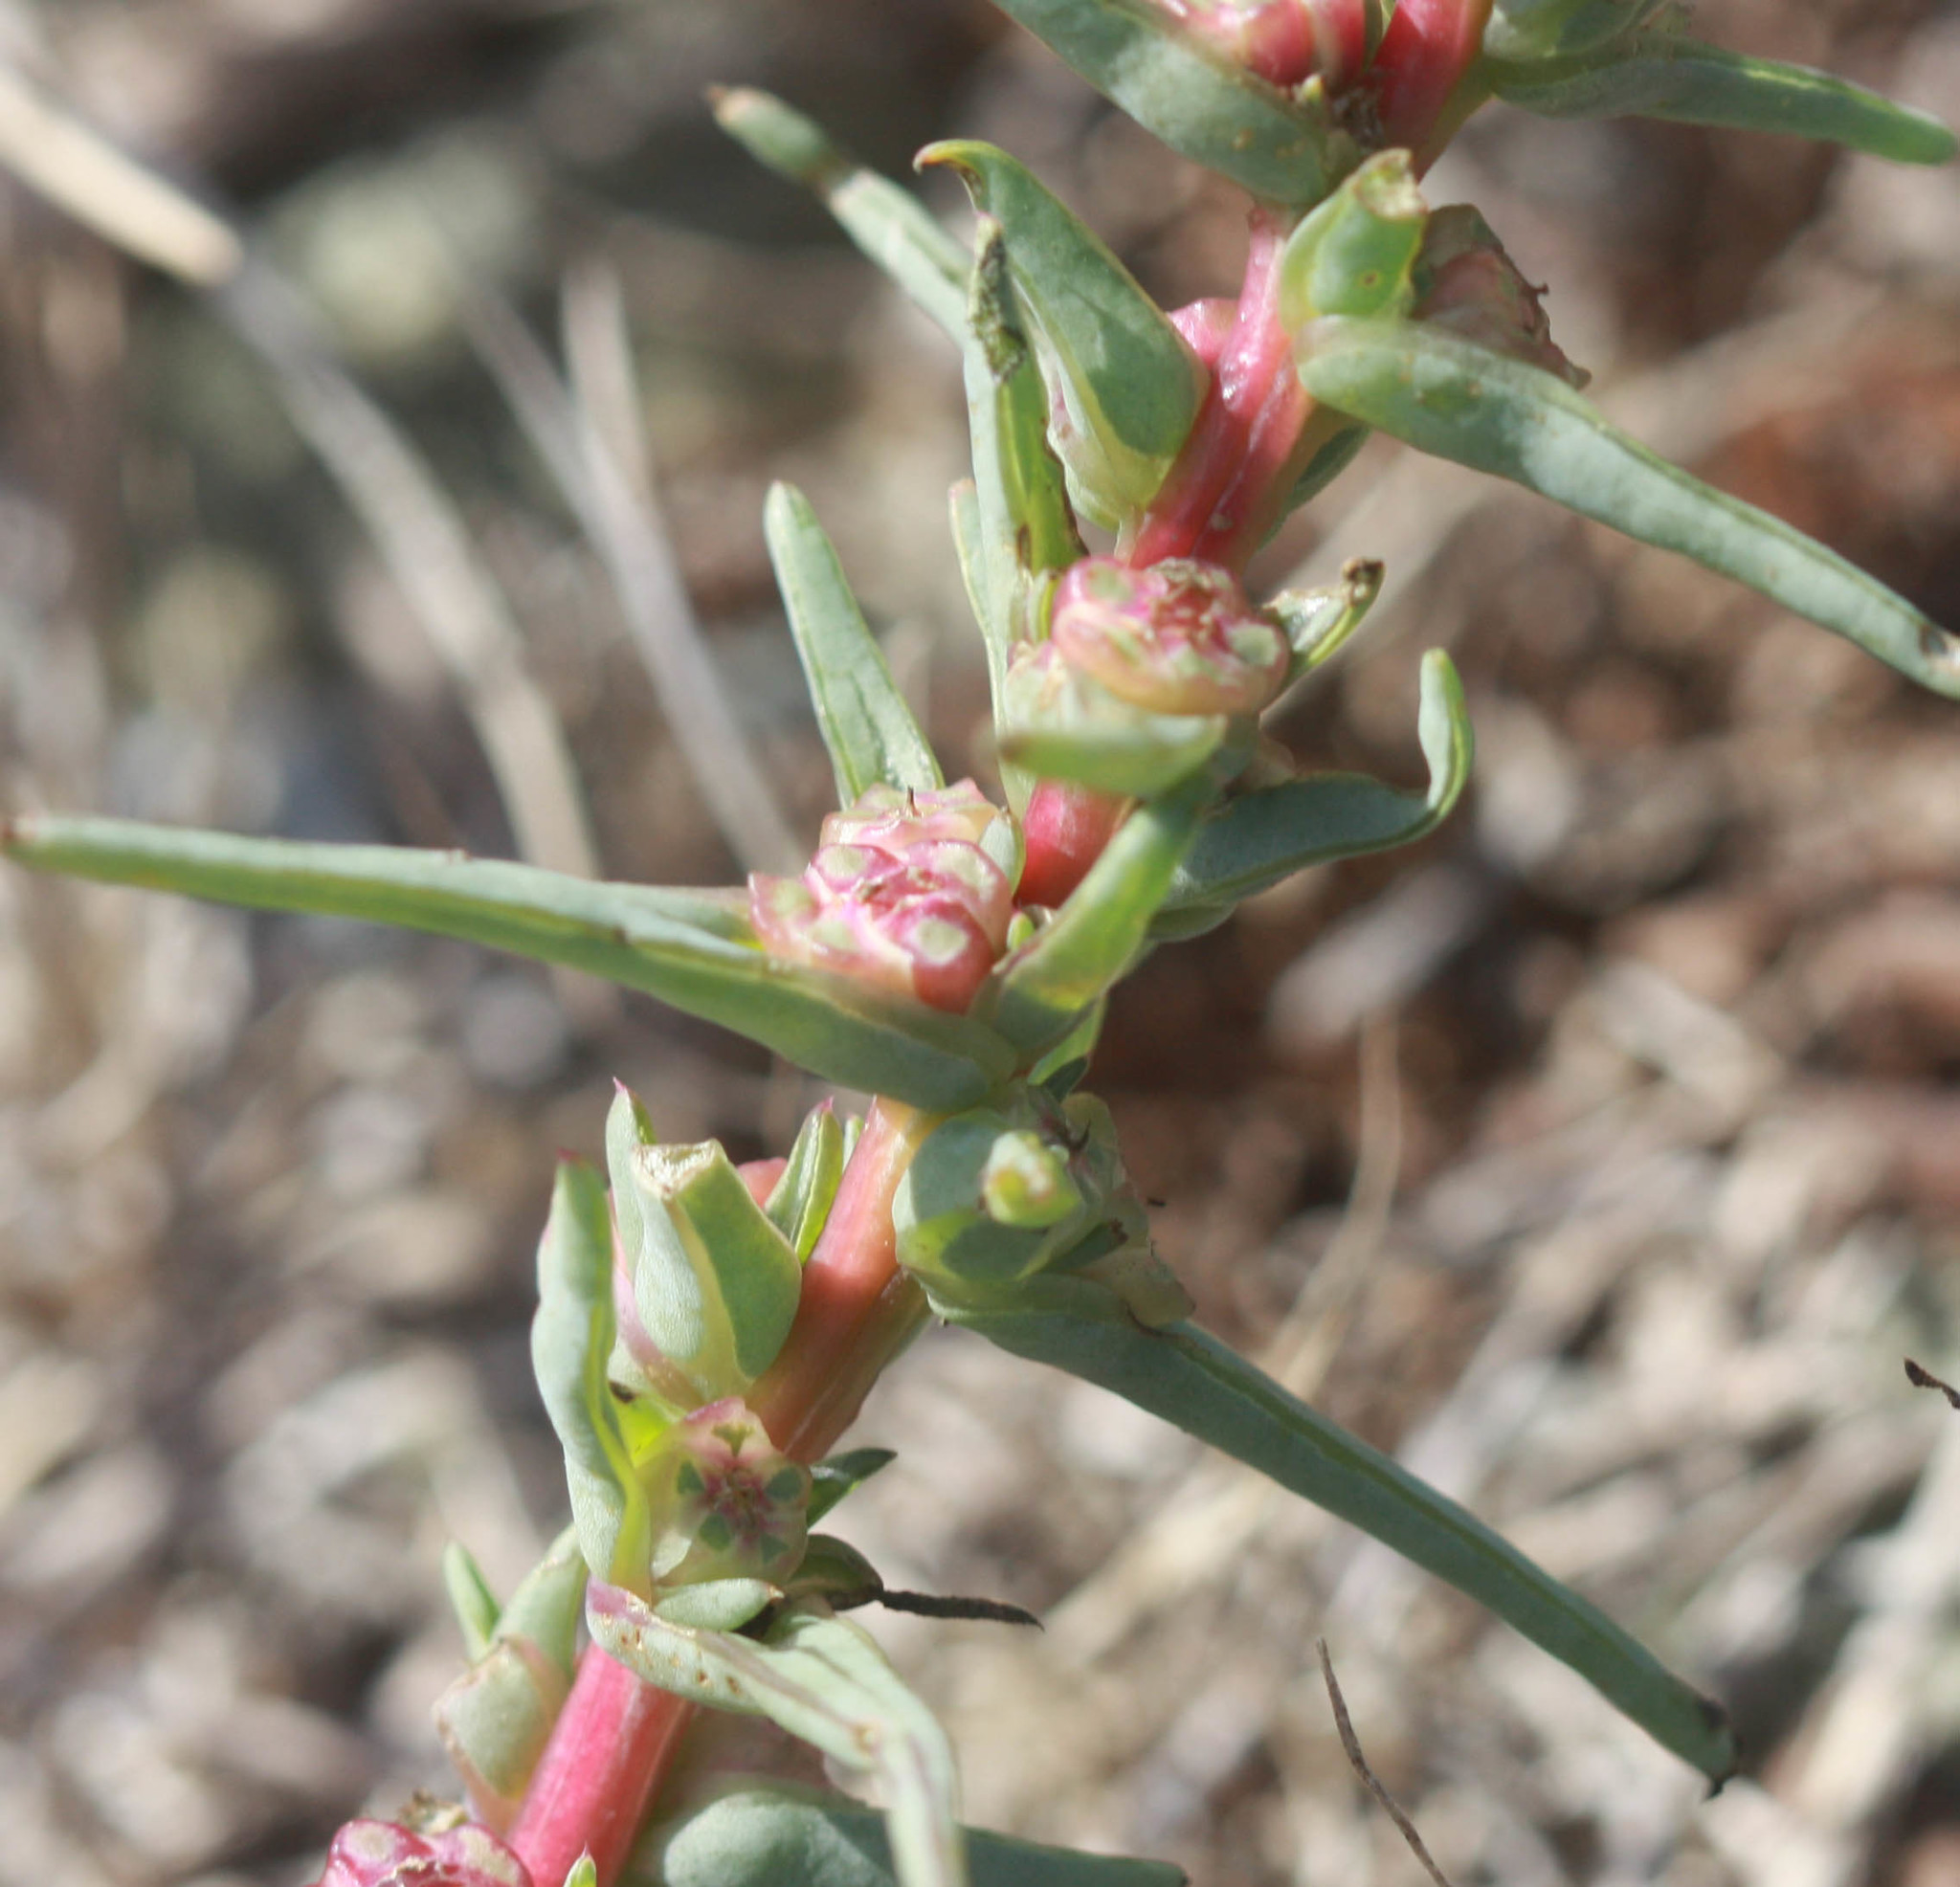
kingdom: Plantae
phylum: Tracheophyta
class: Magnoliopsida
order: Caryophyllales
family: Amaranthaceae
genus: Salsola
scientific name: Salsola soda
